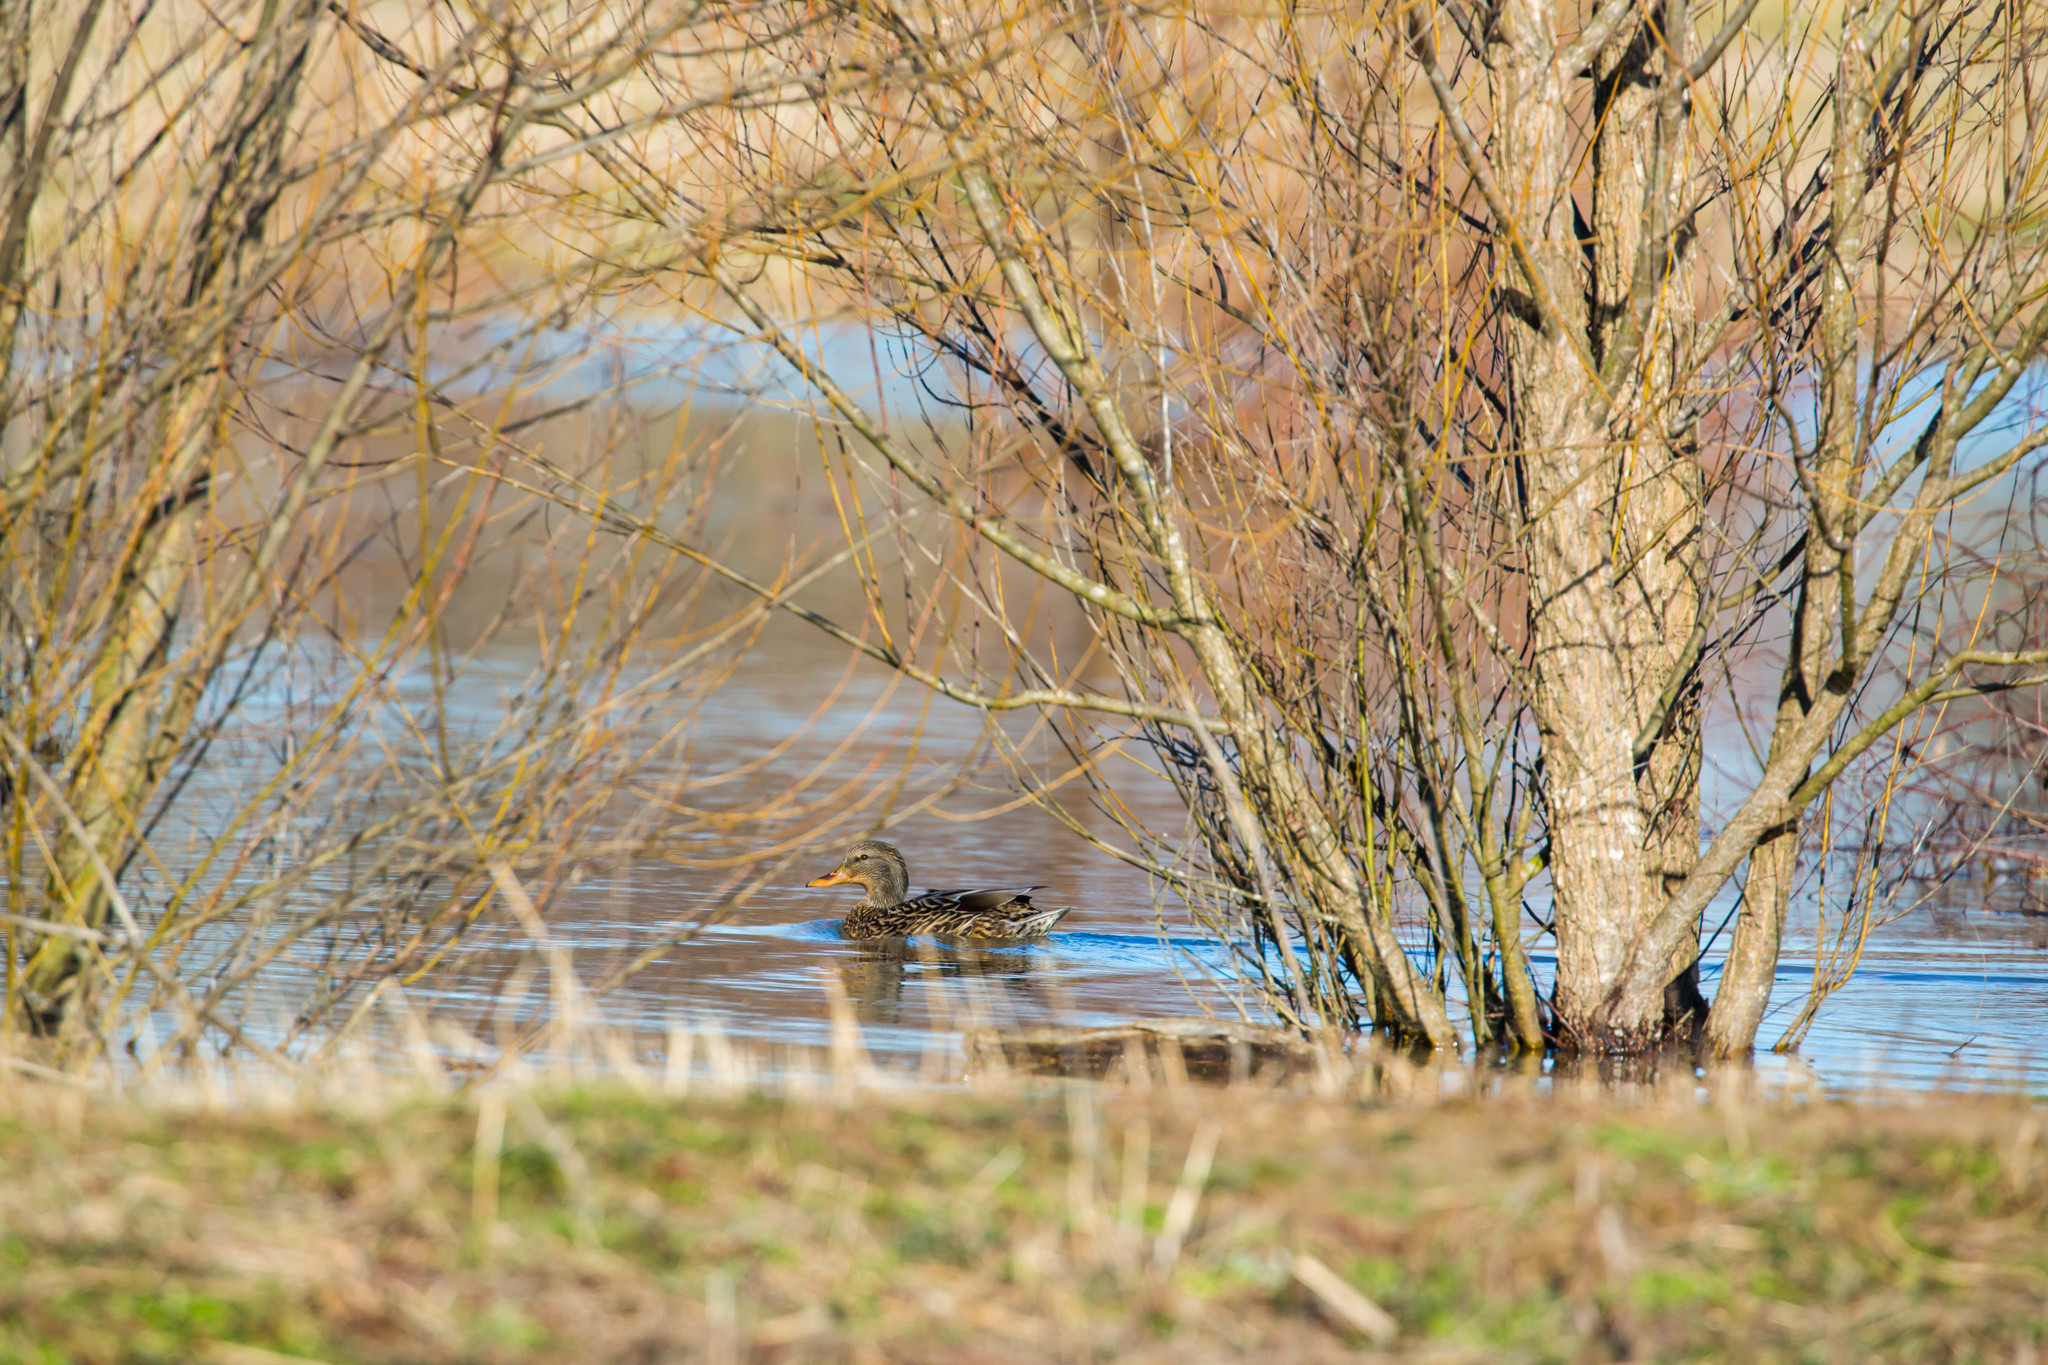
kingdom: Animalia
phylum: Chordata
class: Aves
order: Anseriformes
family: Anatidae
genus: Anas
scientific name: Anas platyrhynchos
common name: Mallard
